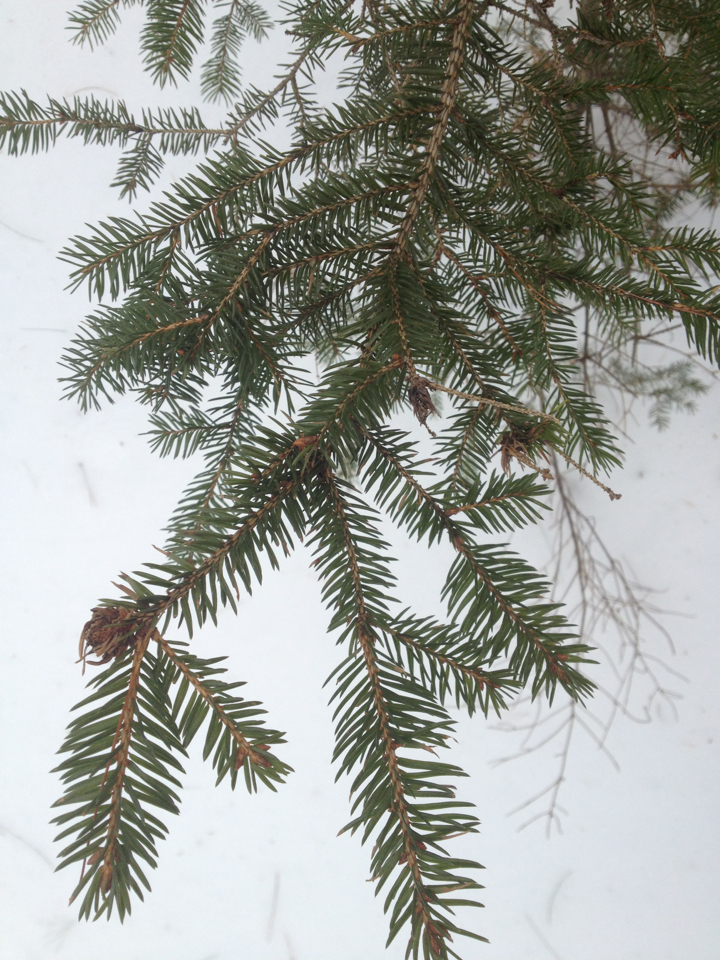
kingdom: Plantae
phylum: Tracheophyta
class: Pinopsida
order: Pinales
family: Pinaceae
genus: Picea
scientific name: Picea rubens
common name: Red spruce
